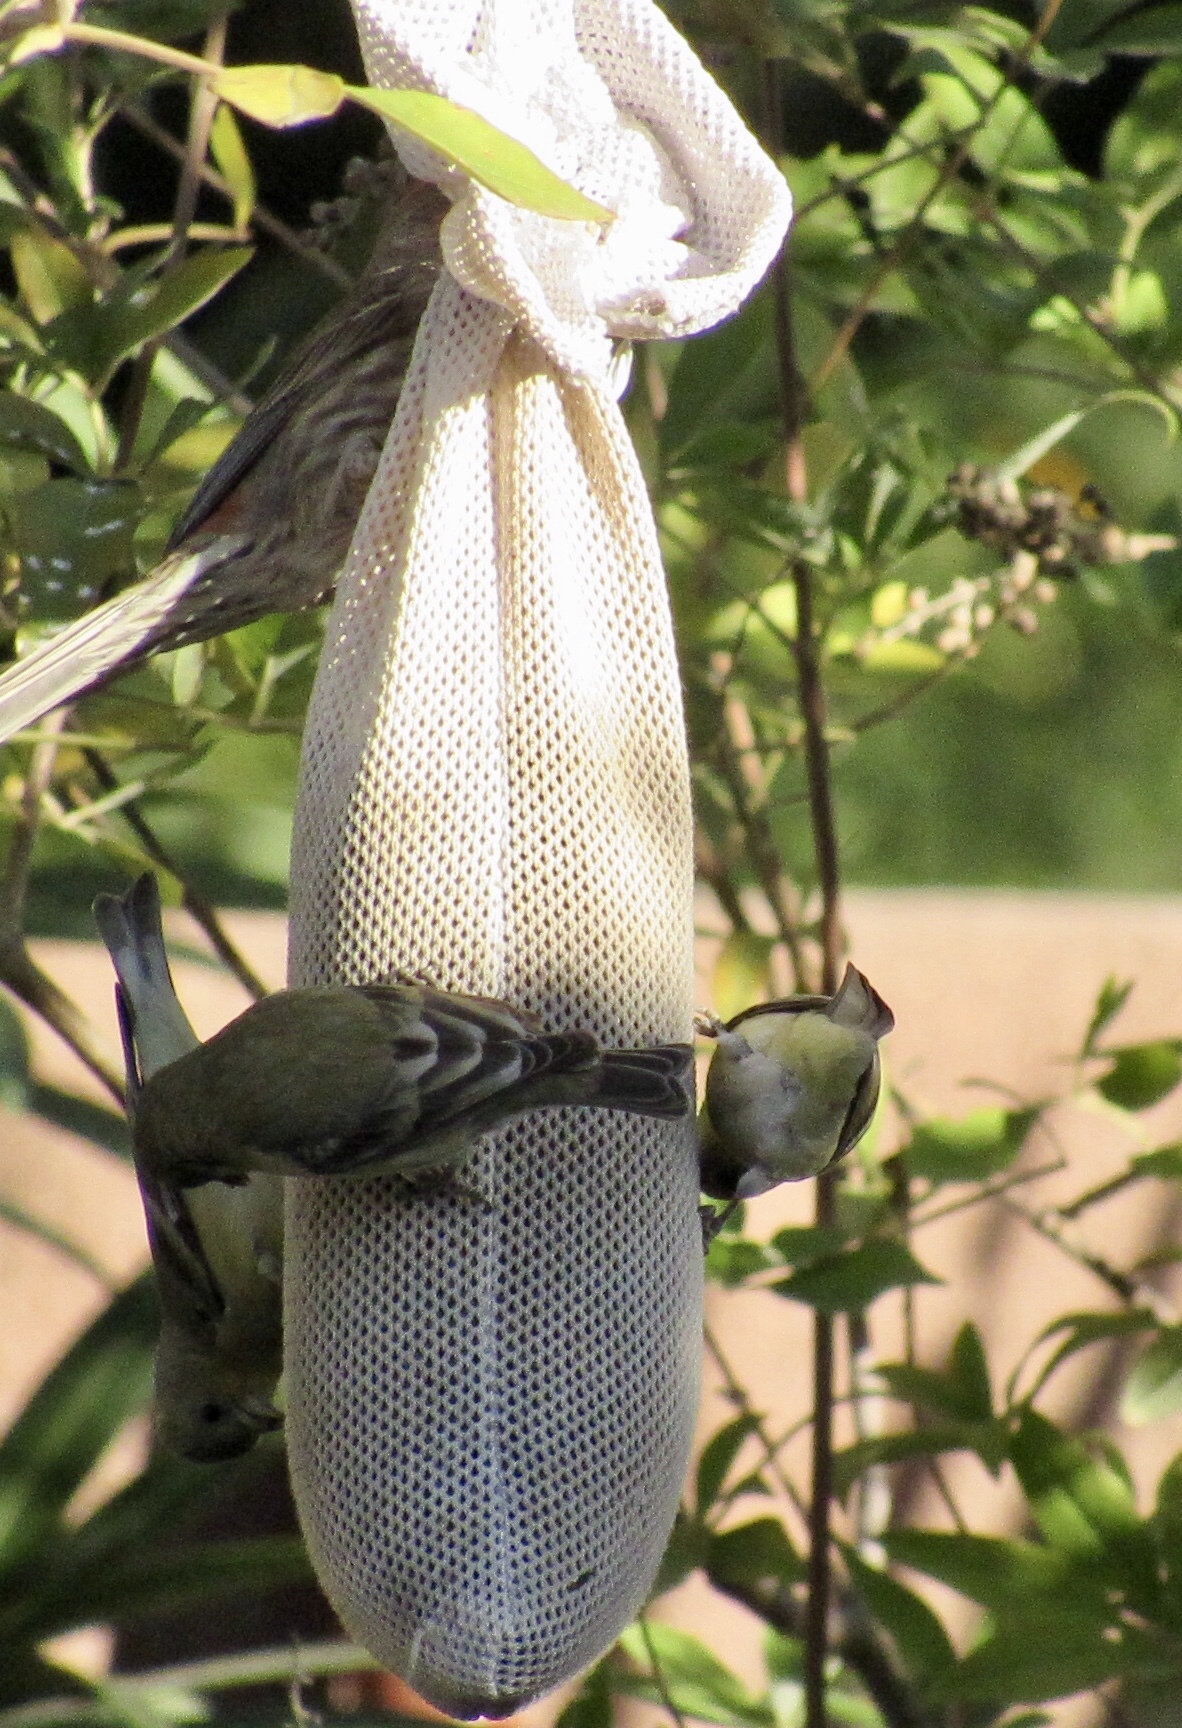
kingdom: Animalia
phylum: Chordata
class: Aves
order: Passeriformes
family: Fringillidae
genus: Spinus
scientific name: Spinus psaltria
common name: Lesser goldfinch
